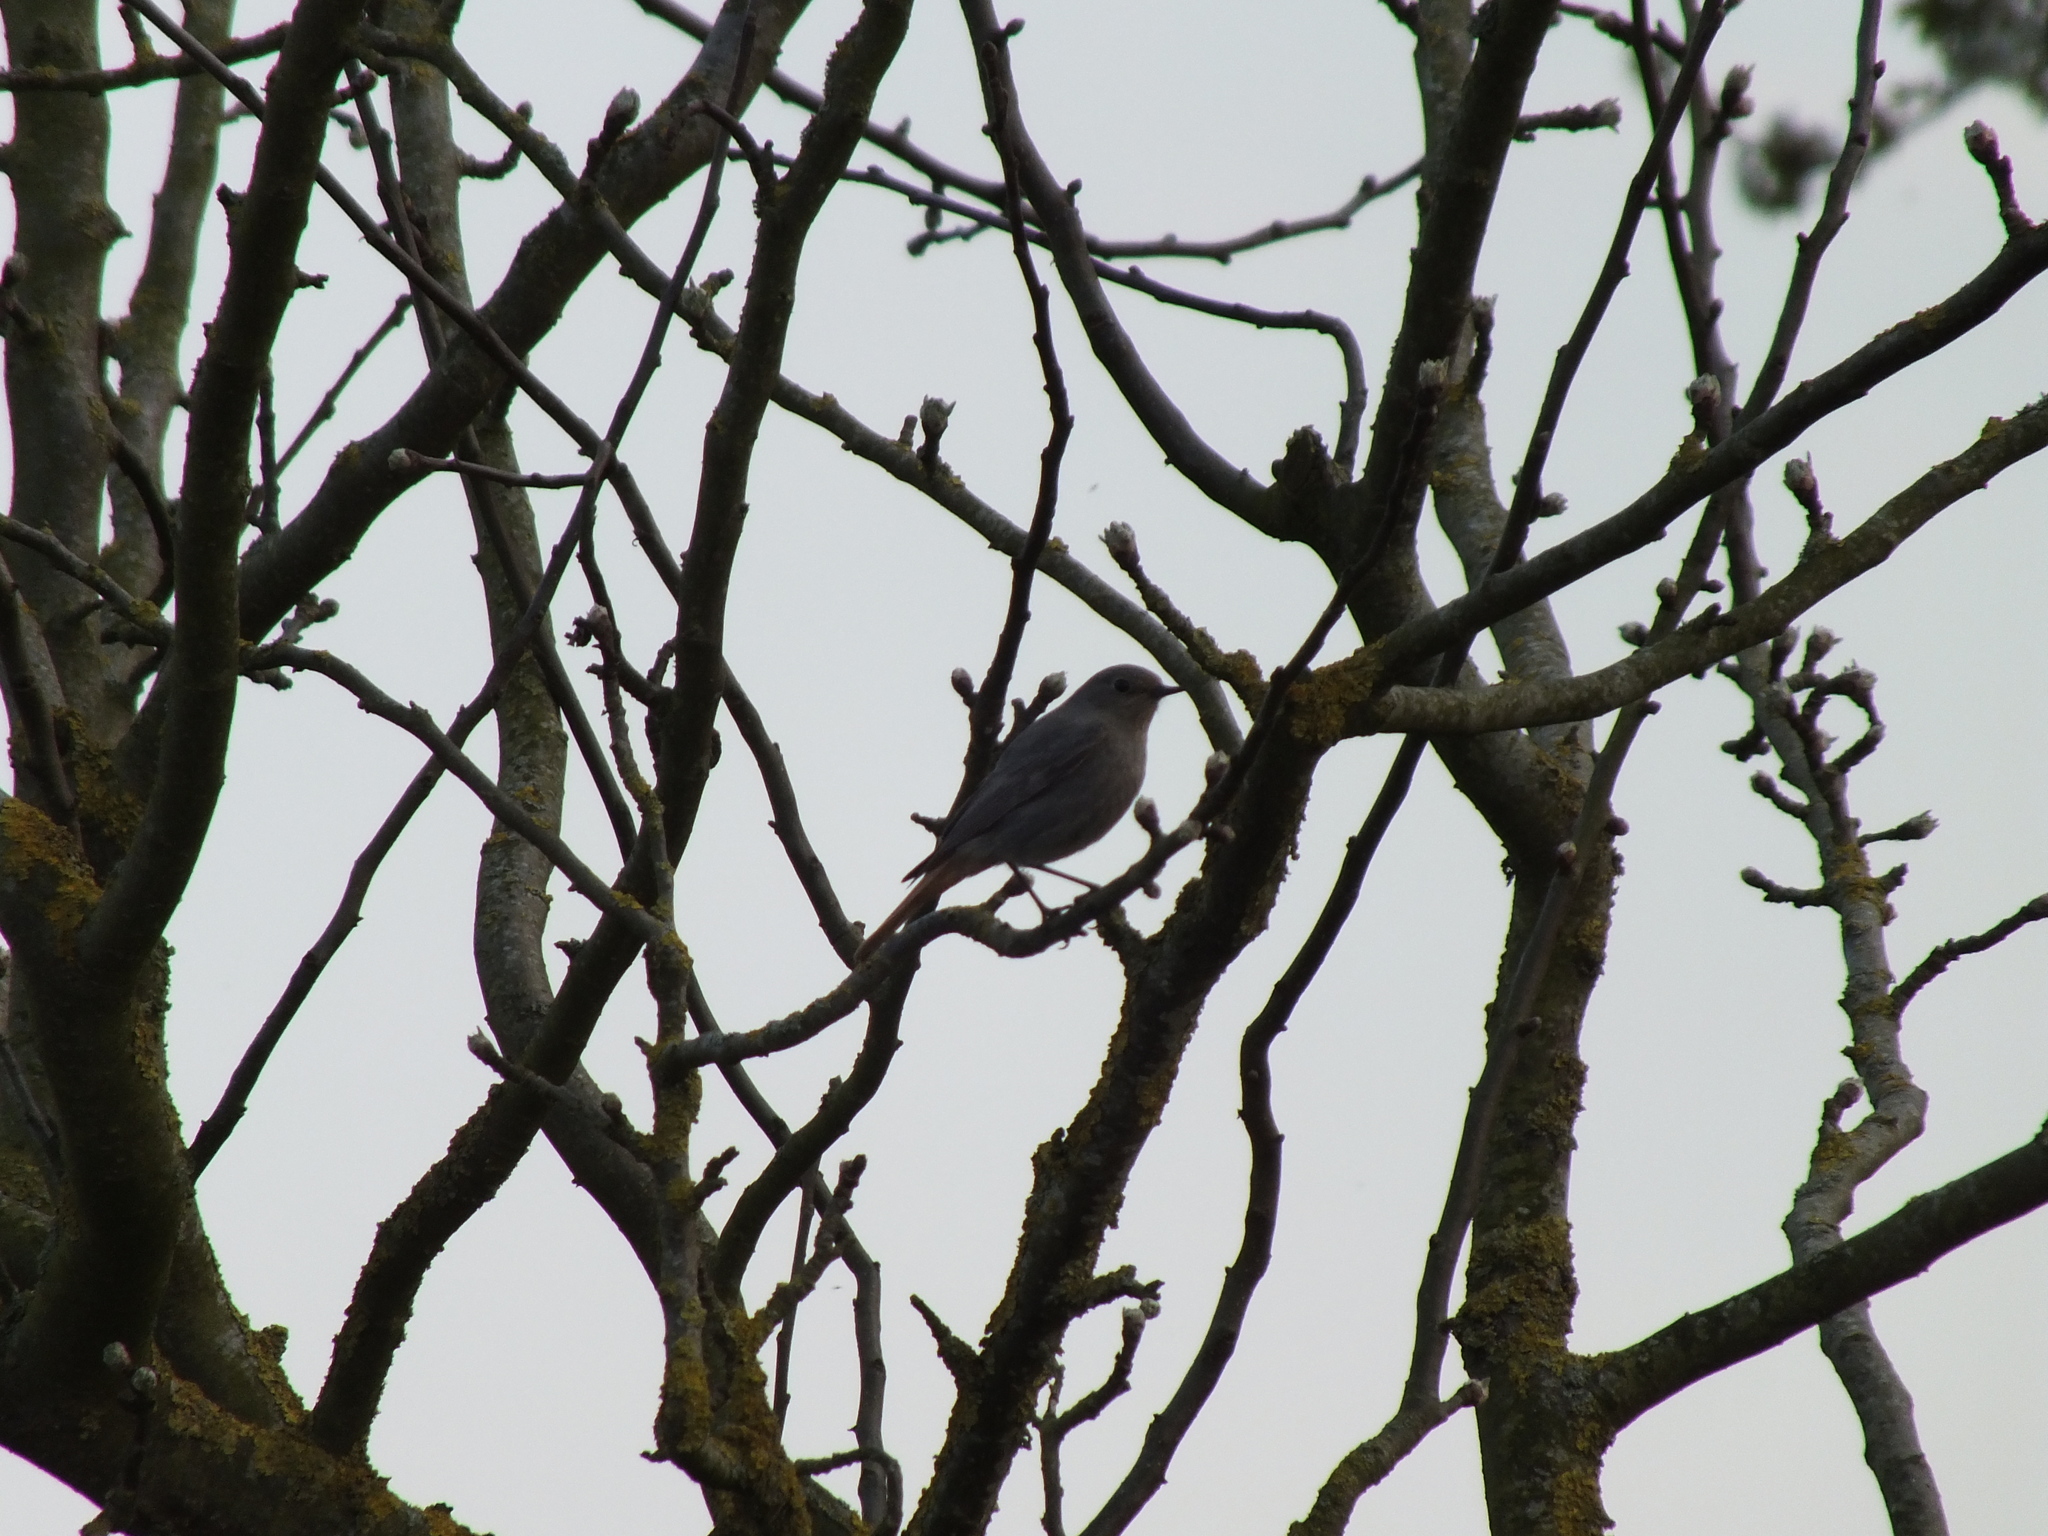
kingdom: Animalia
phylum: Chordata
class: Aves
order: Passeriformes
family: Muscicapidae
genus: Phoenicurus
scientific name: Phoenicurus ochruros
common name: Black redstart
